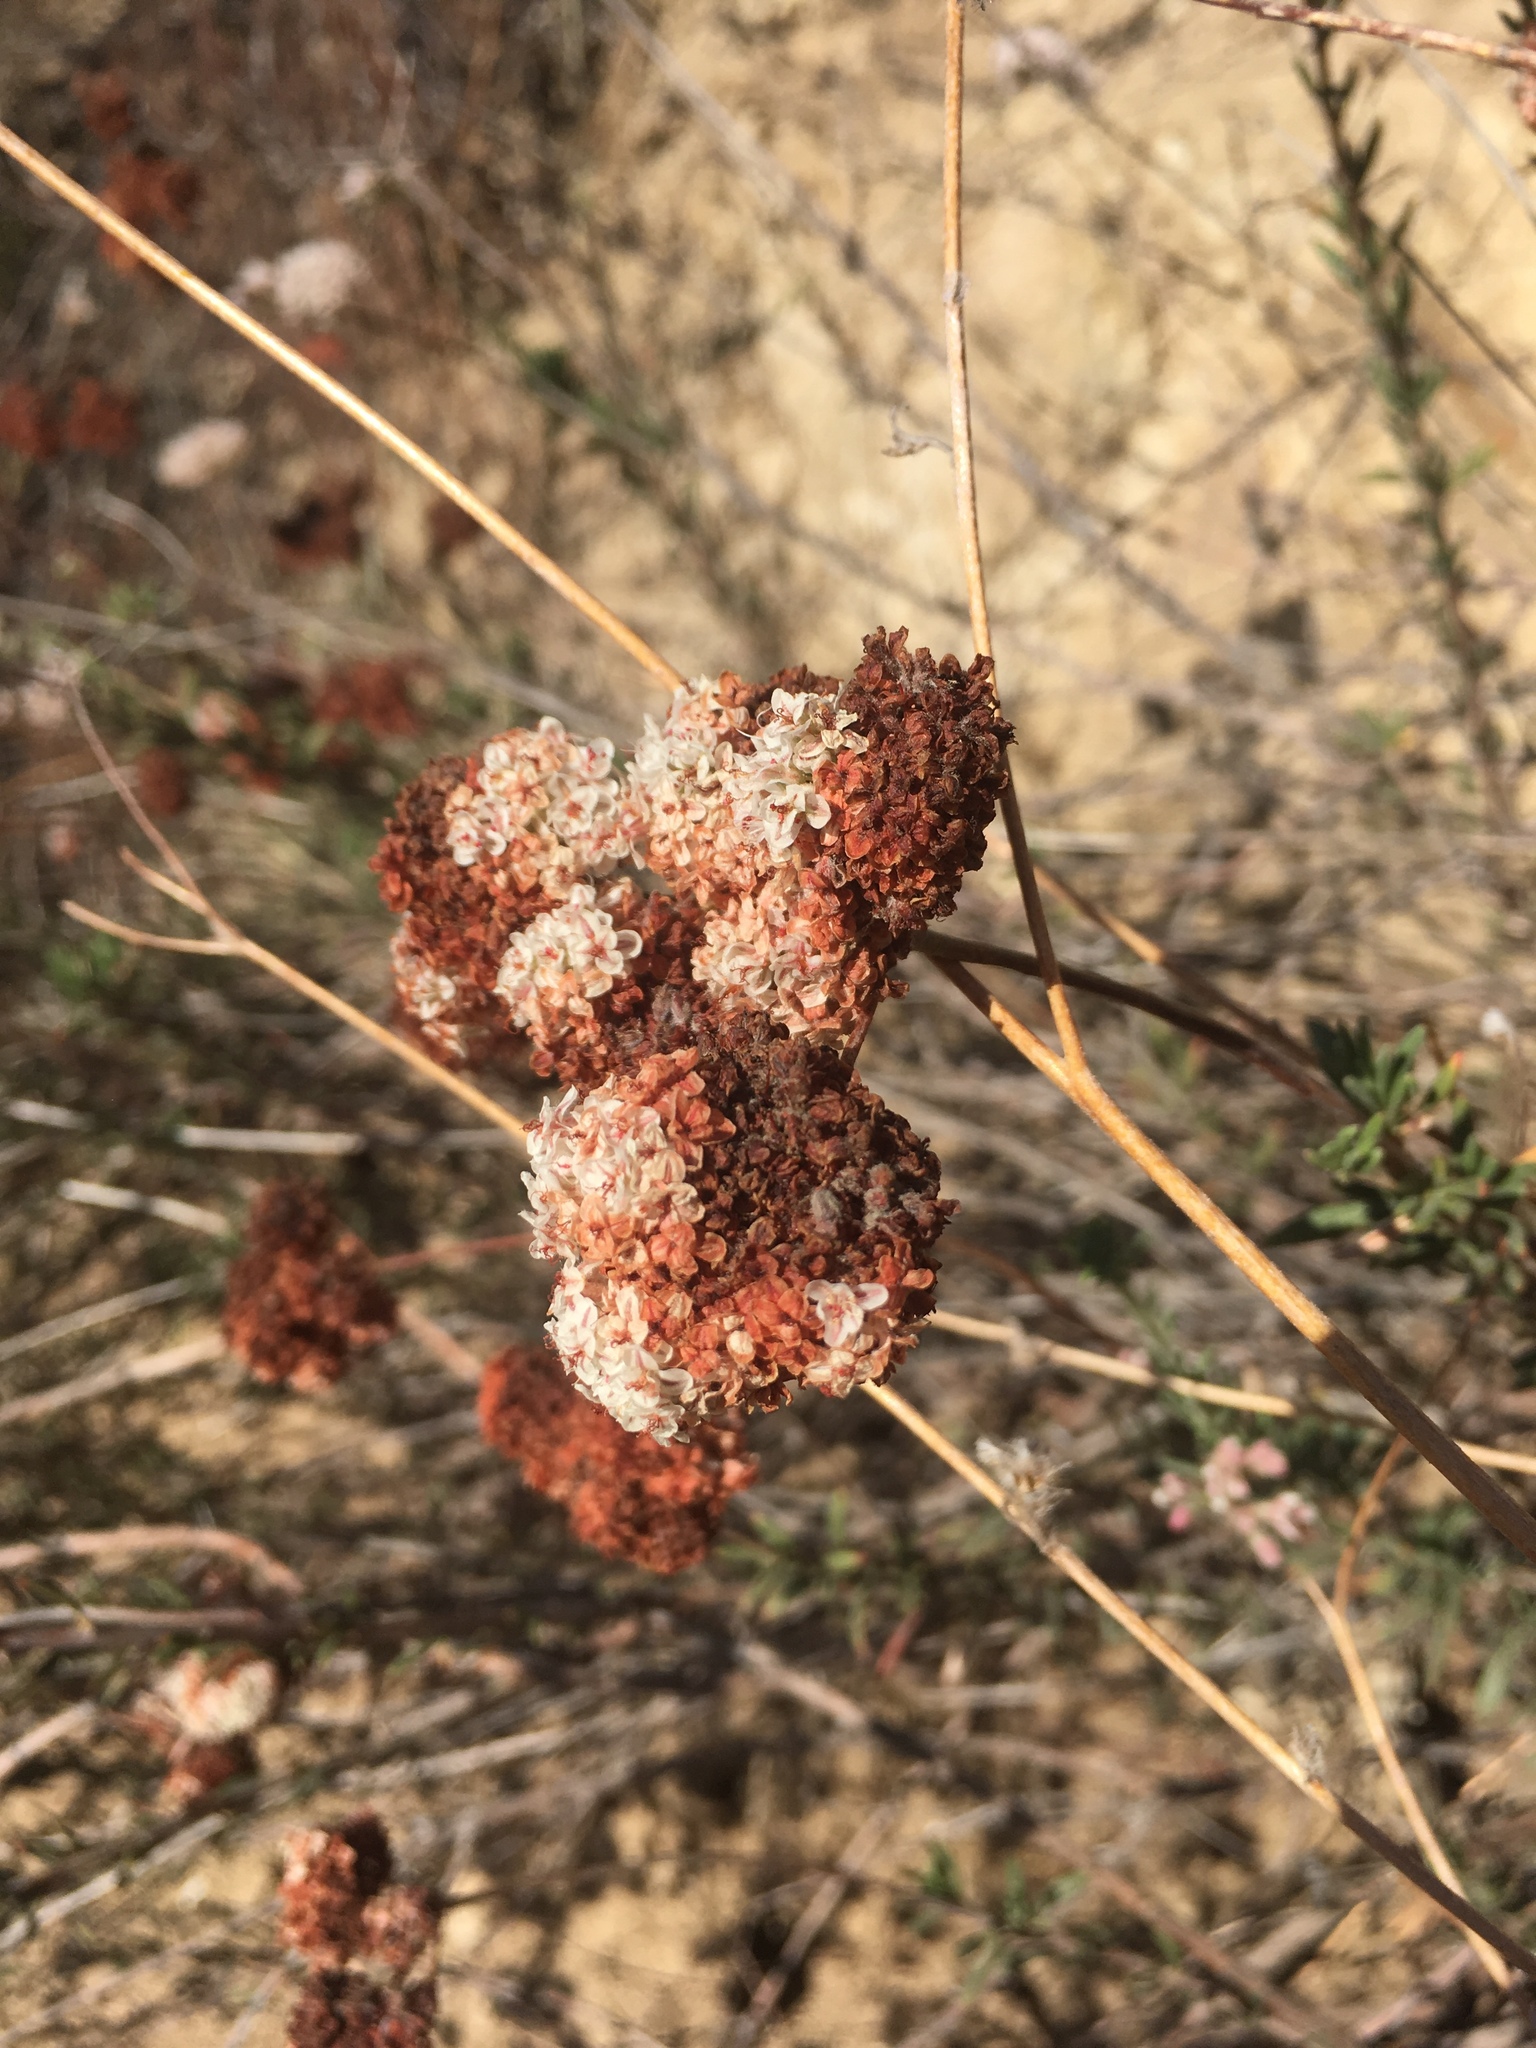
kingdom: Plantae
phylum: Tracheophyta
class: Magnoliopsida
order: Caryophyllales
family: Polygonaceae
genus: Eriogonum
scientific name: Eriogonum fasciculatum
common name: California wild buckwheat
